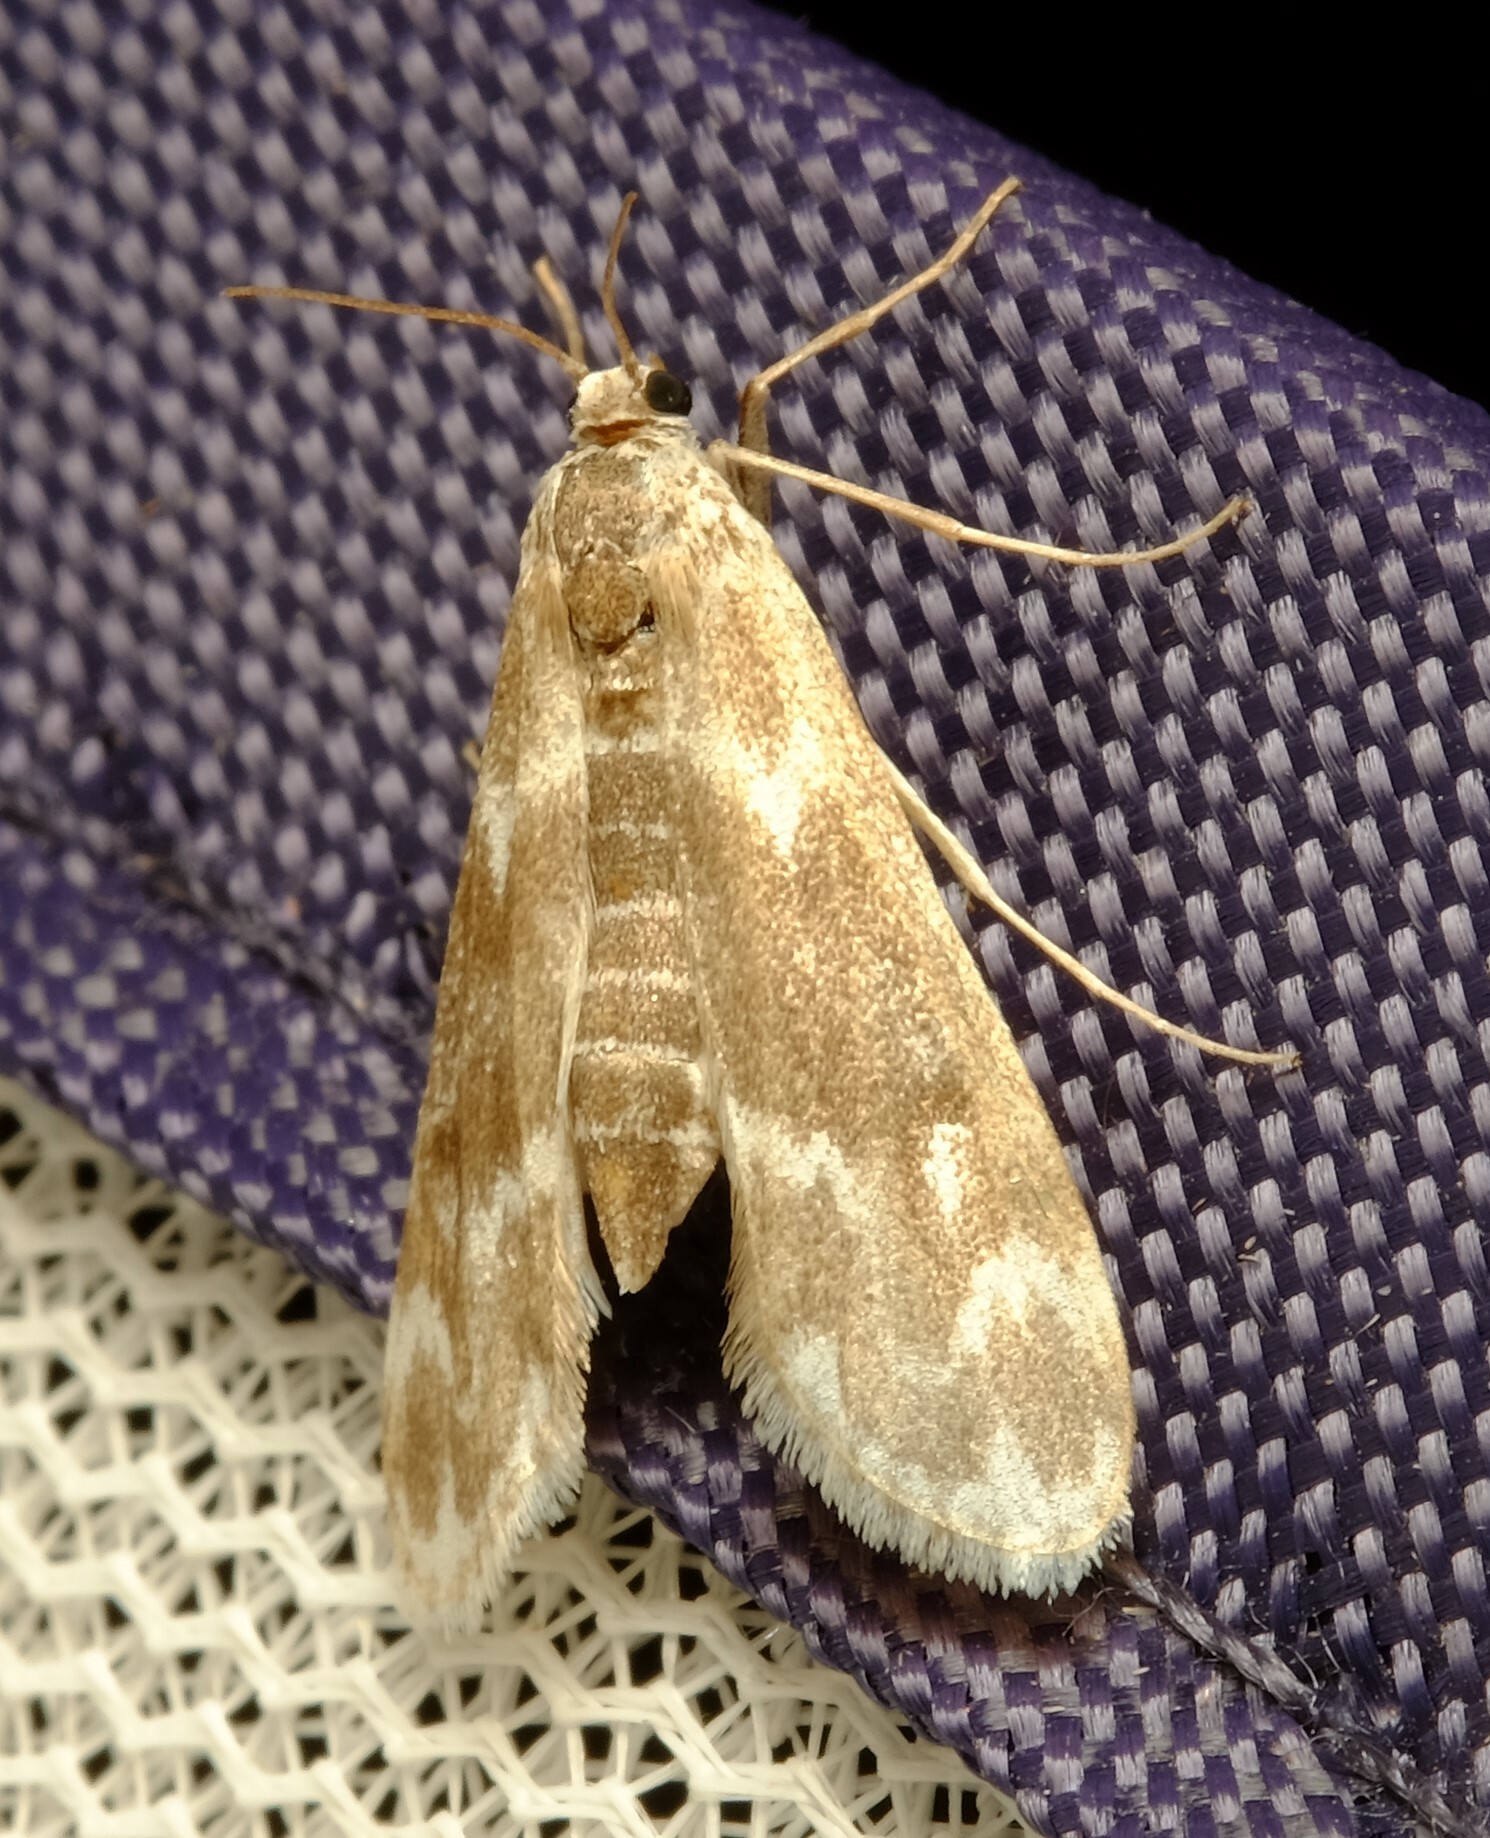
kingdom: Animalia
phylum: Arthropoda
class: Insecta
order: Lepidoptera
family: Crambidae
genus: Hygraula
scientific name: Hygraula nitens
